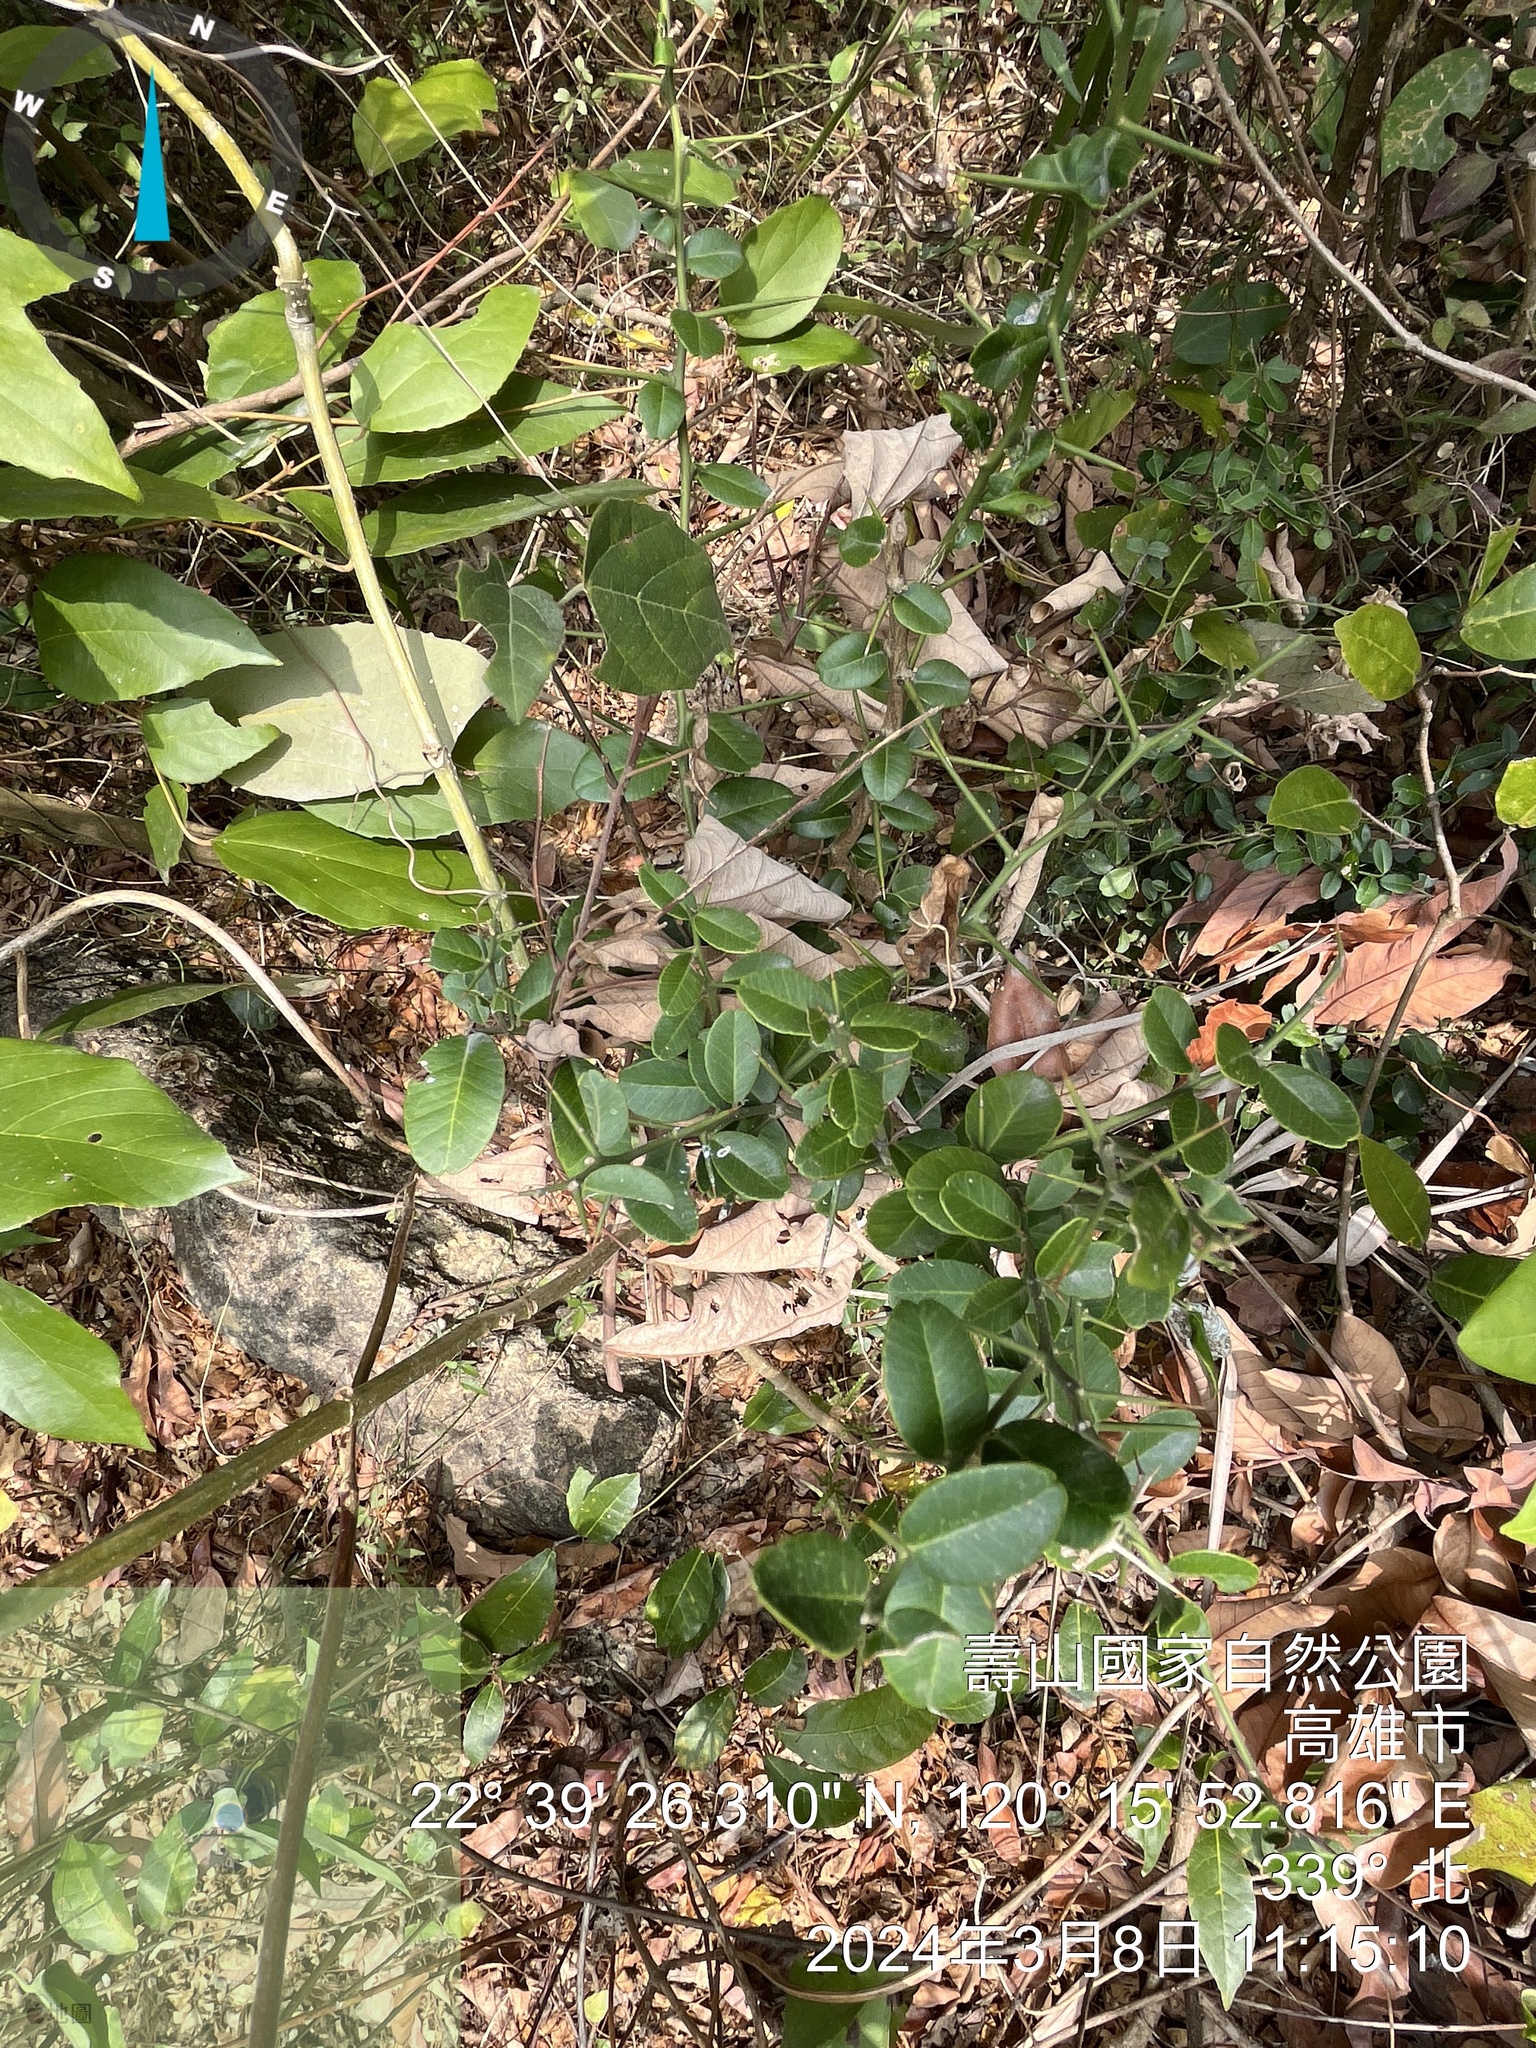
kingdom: Plantae
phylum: Tracheophyta
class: Magnoliopsida
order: Sapindales
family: Rutaceae
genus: Atalantia
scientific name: Atalantia buxifolia
